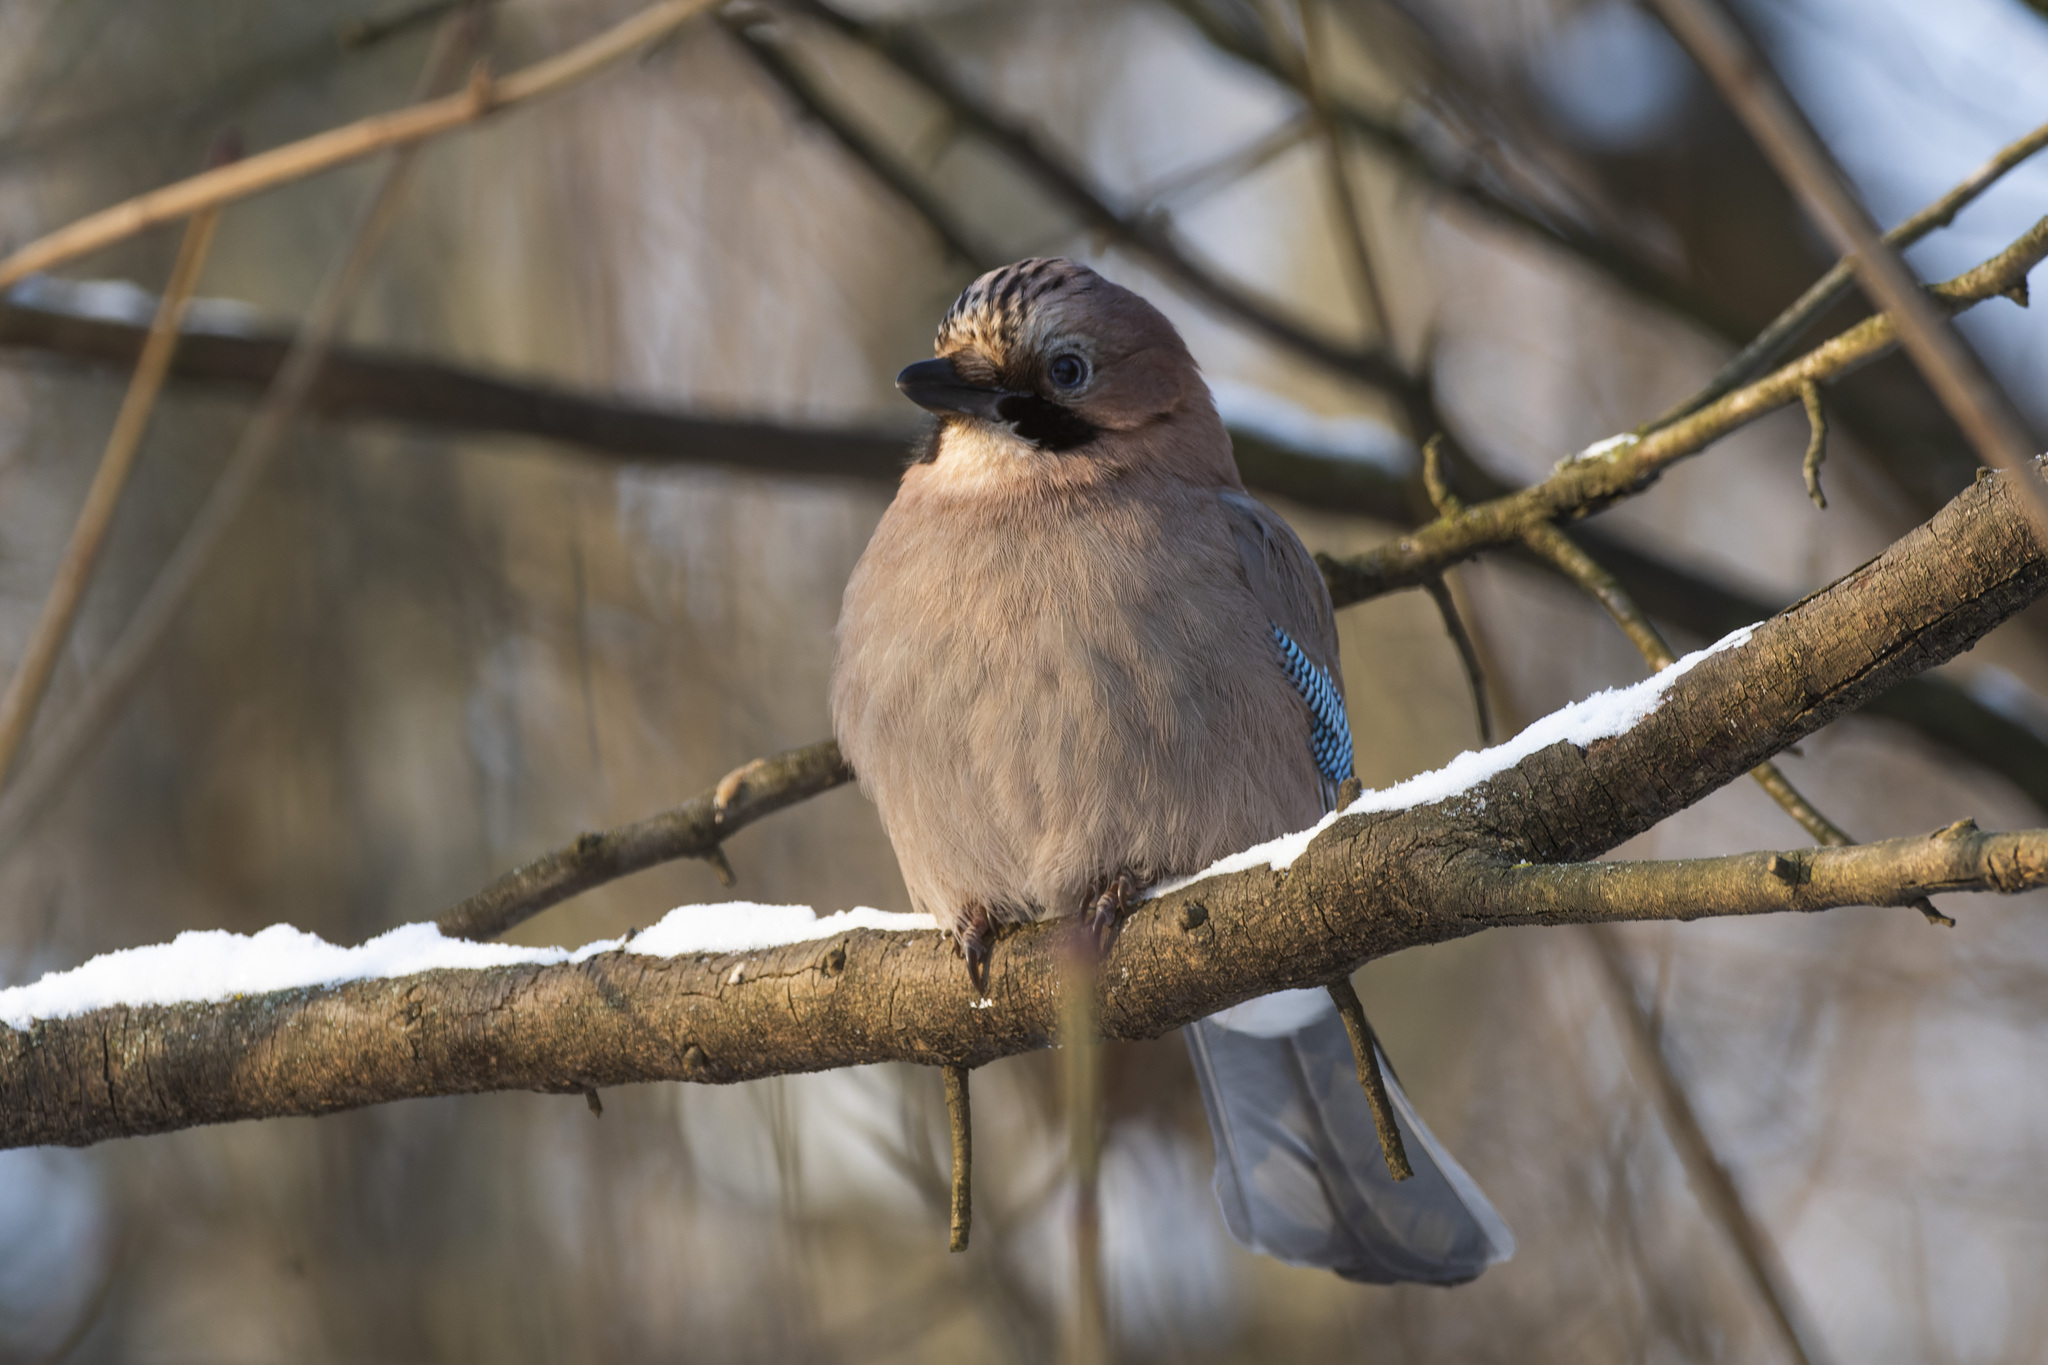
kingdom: Animalia
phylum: Chordata
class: Aves
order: Passeriformes
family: Corvidae
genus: Garrulus
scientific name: Garrulus glandarius
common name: Eurasian jay
